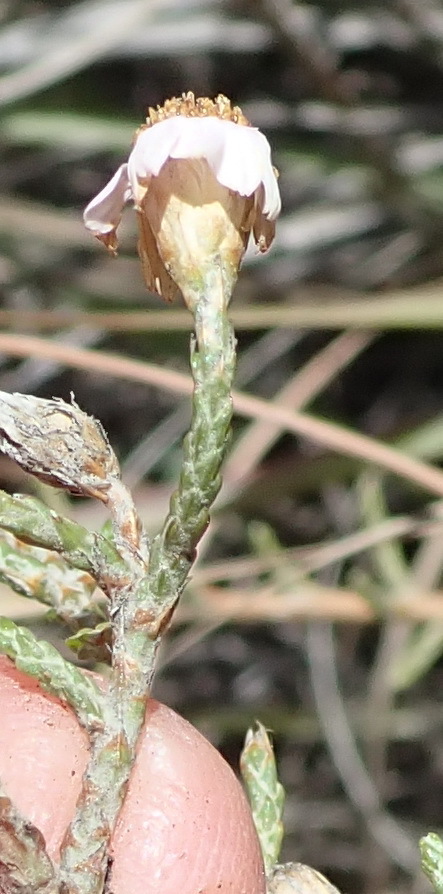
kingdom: Plantae
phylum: Tracheophyta
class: Magnoliopsida
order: Asterales
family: Asteraceae
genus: Phymaspermum
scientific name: Phymaspermum appressum
